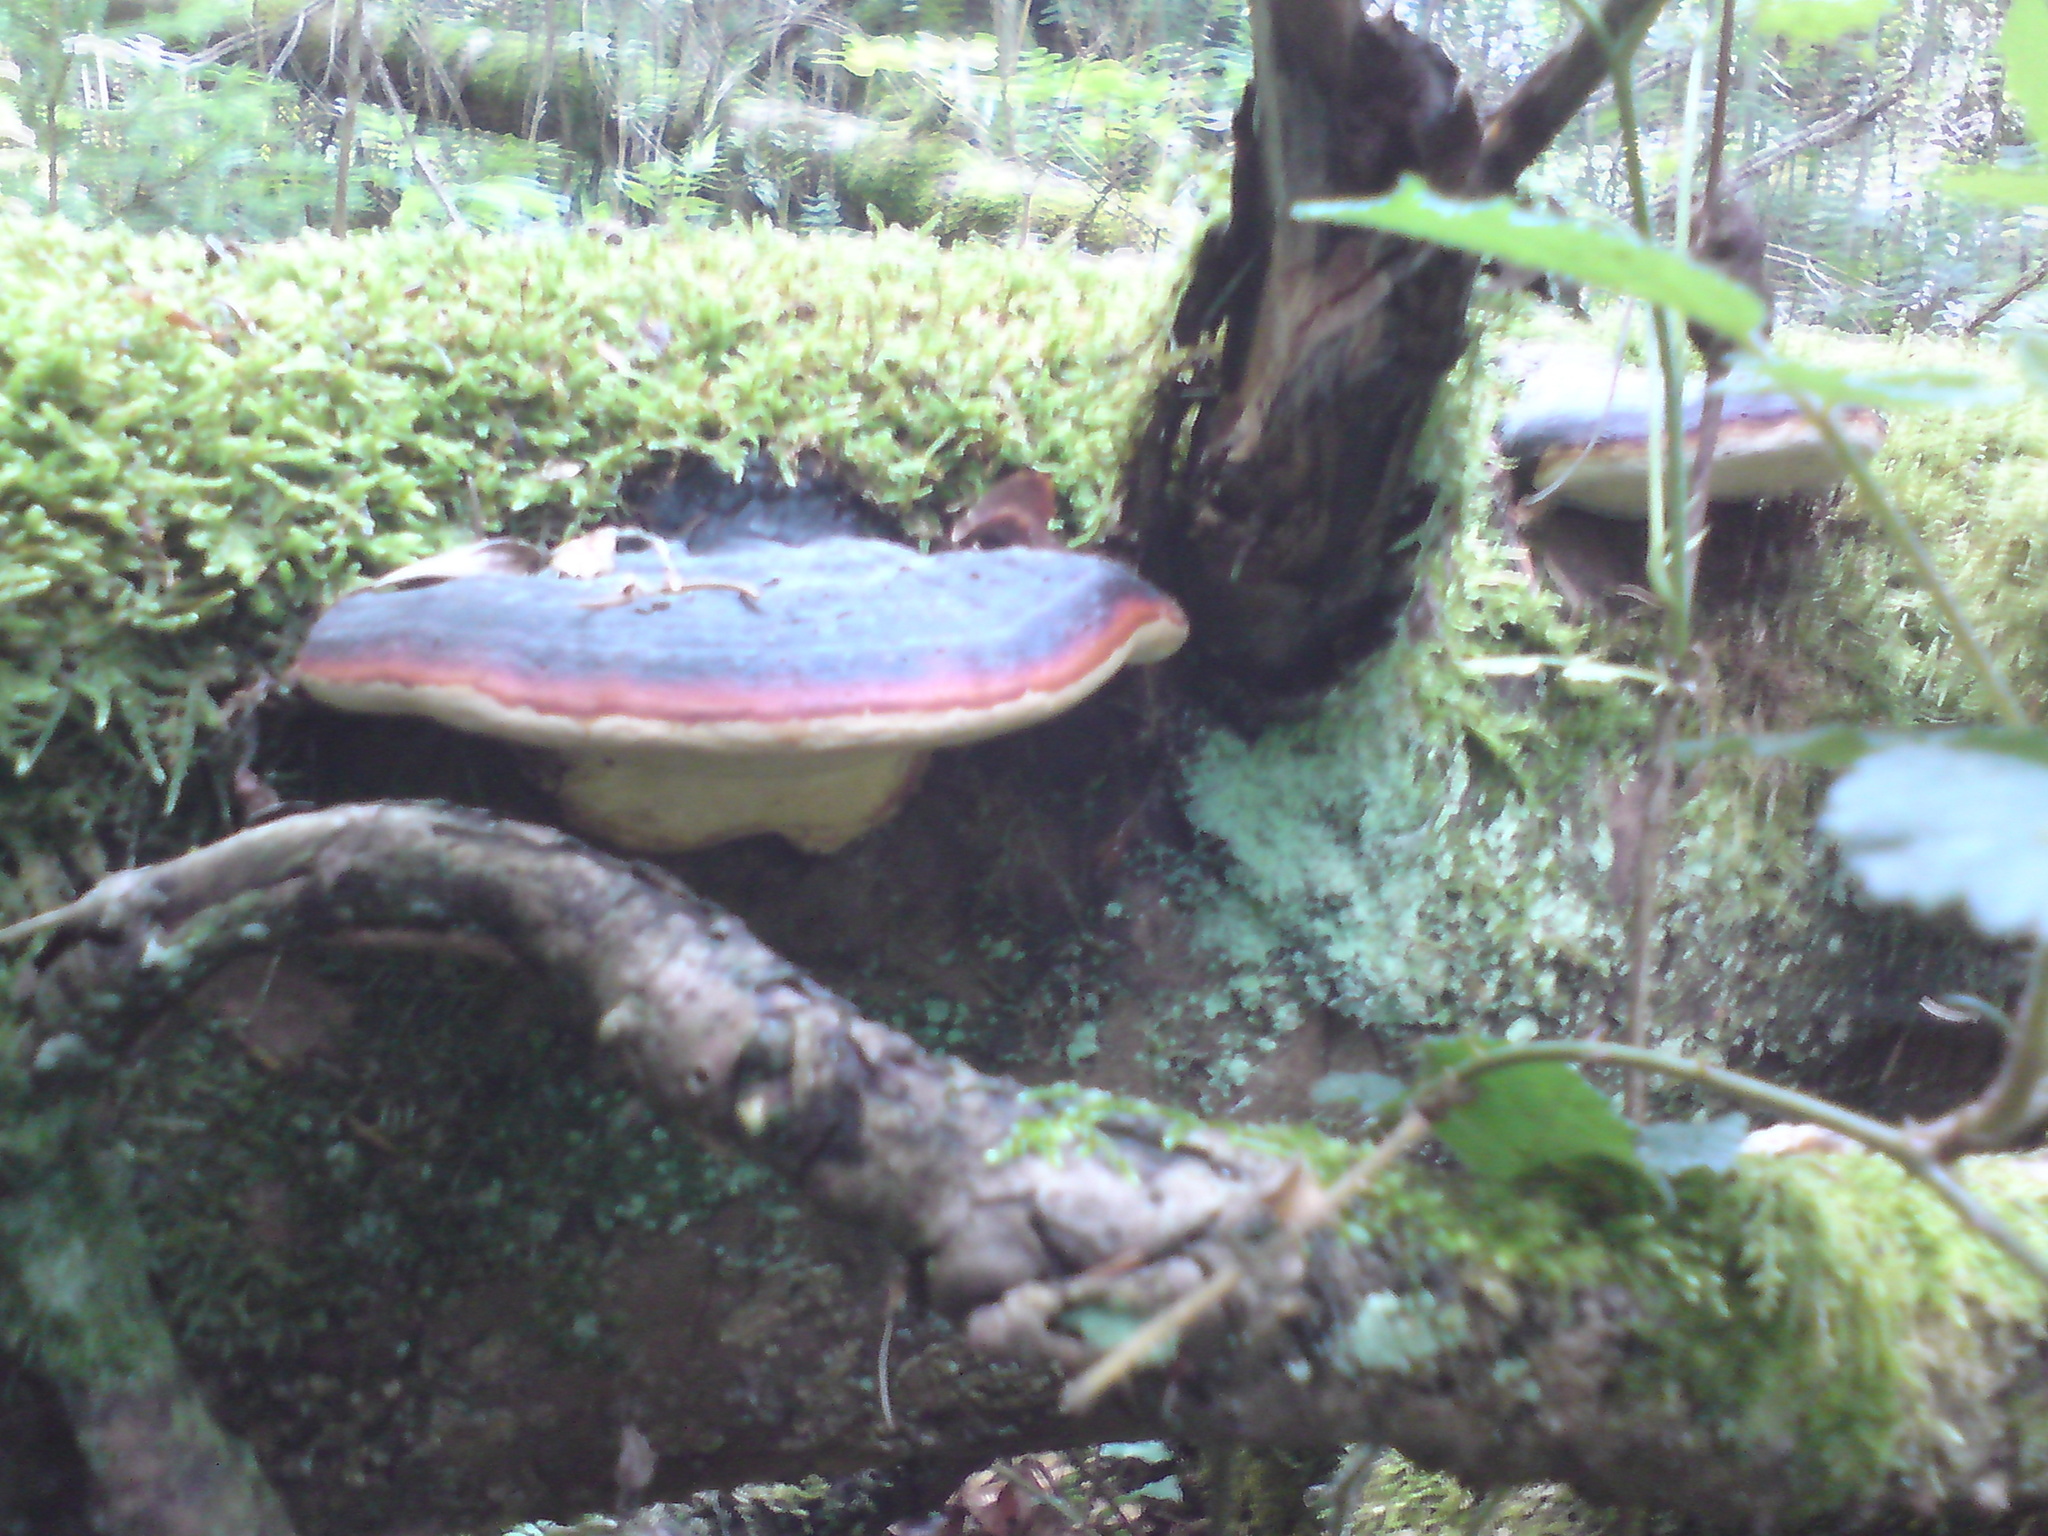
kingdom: Fungi
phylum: Basidiomycota
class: Agaricomycetes
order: Polyporales
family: Fomitopsidaceae
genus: Fomitopsis
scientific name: Fomitopsis pinicola
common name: Red-belted bracket
